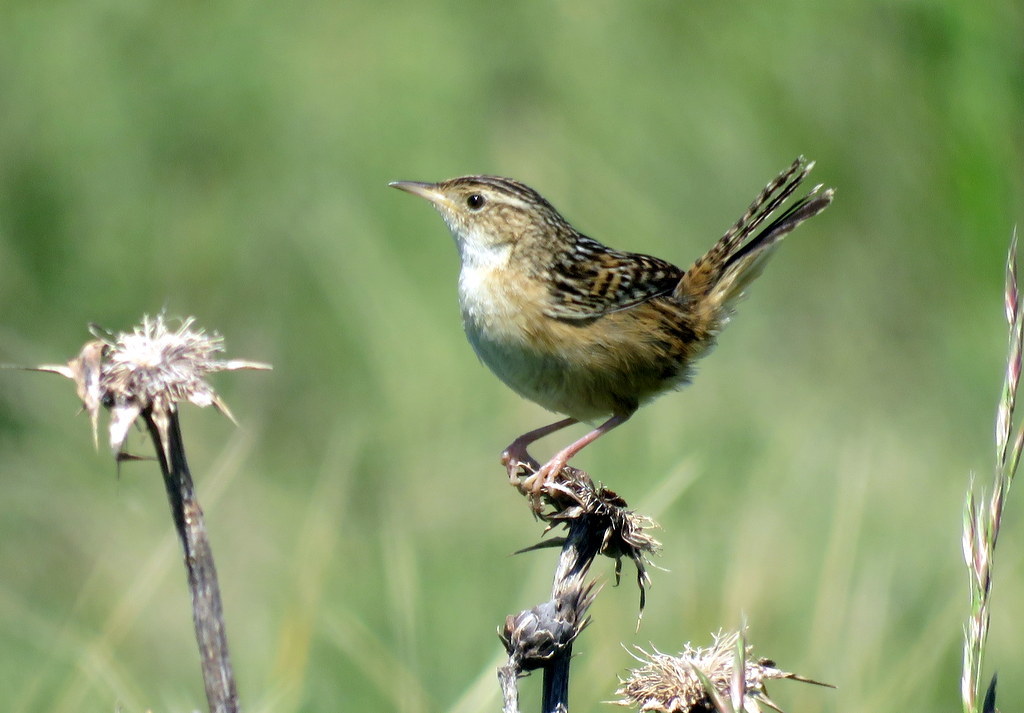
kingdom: Animalia
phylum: Chordata
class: Aves
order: Passeriformes
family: Troglodytidae
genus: Cistothorus
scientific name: Cistothorus platensis
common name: Sedge wren
